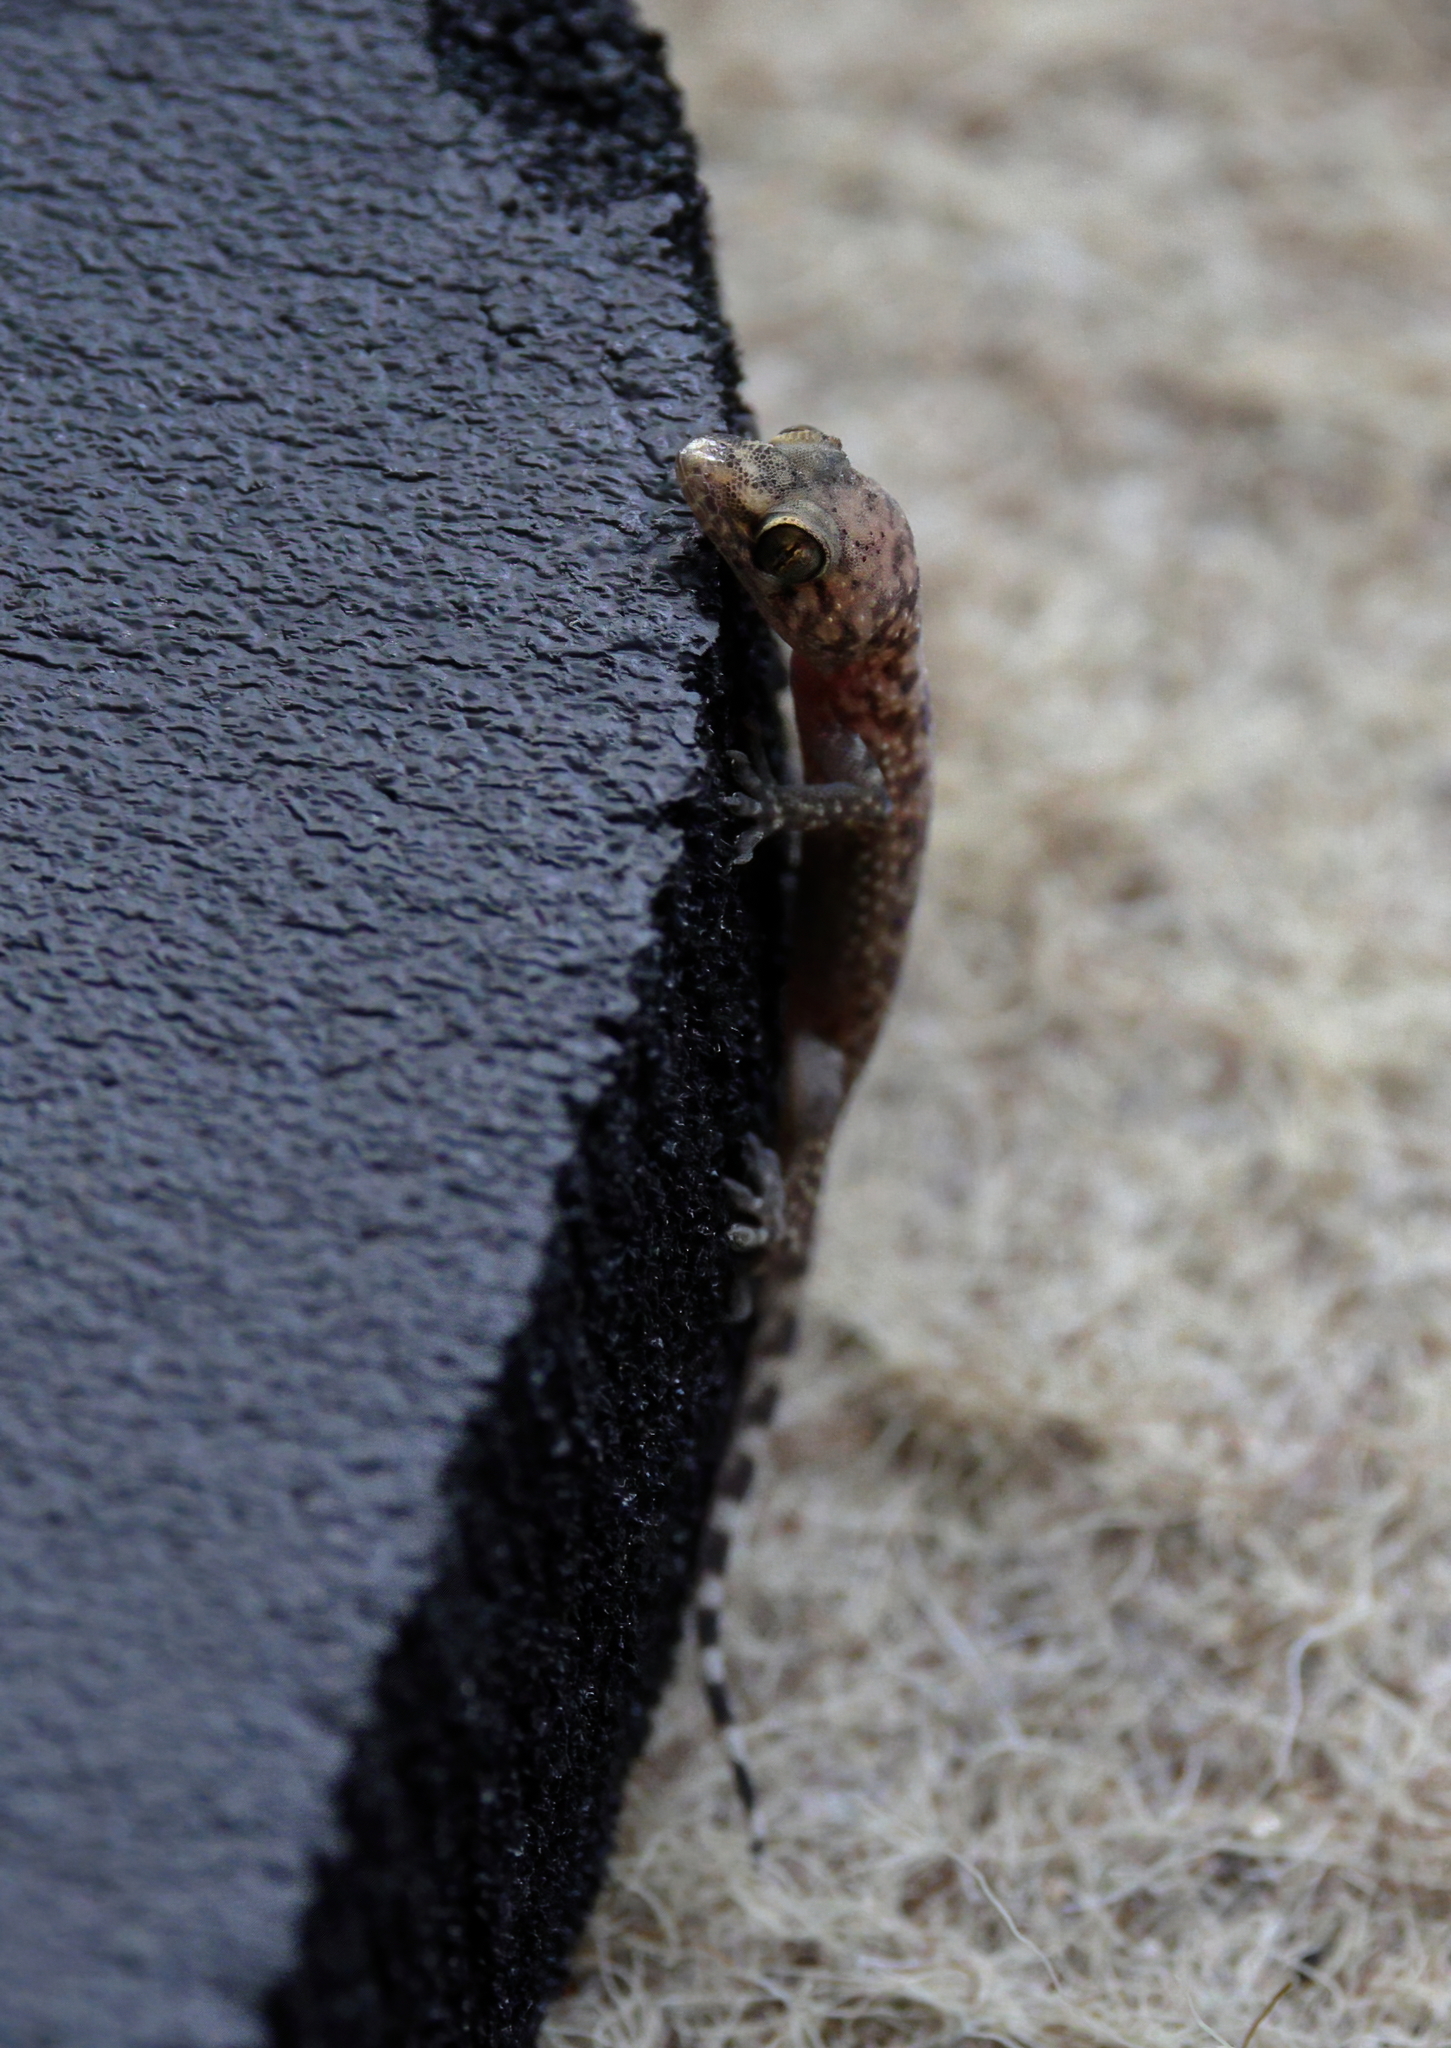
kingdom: Animalia
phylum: Chordata
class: Squamata
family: Gekkonidae
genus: Hemidactylus
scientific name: Hemidactylus turcicus
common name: Turkish gecko
